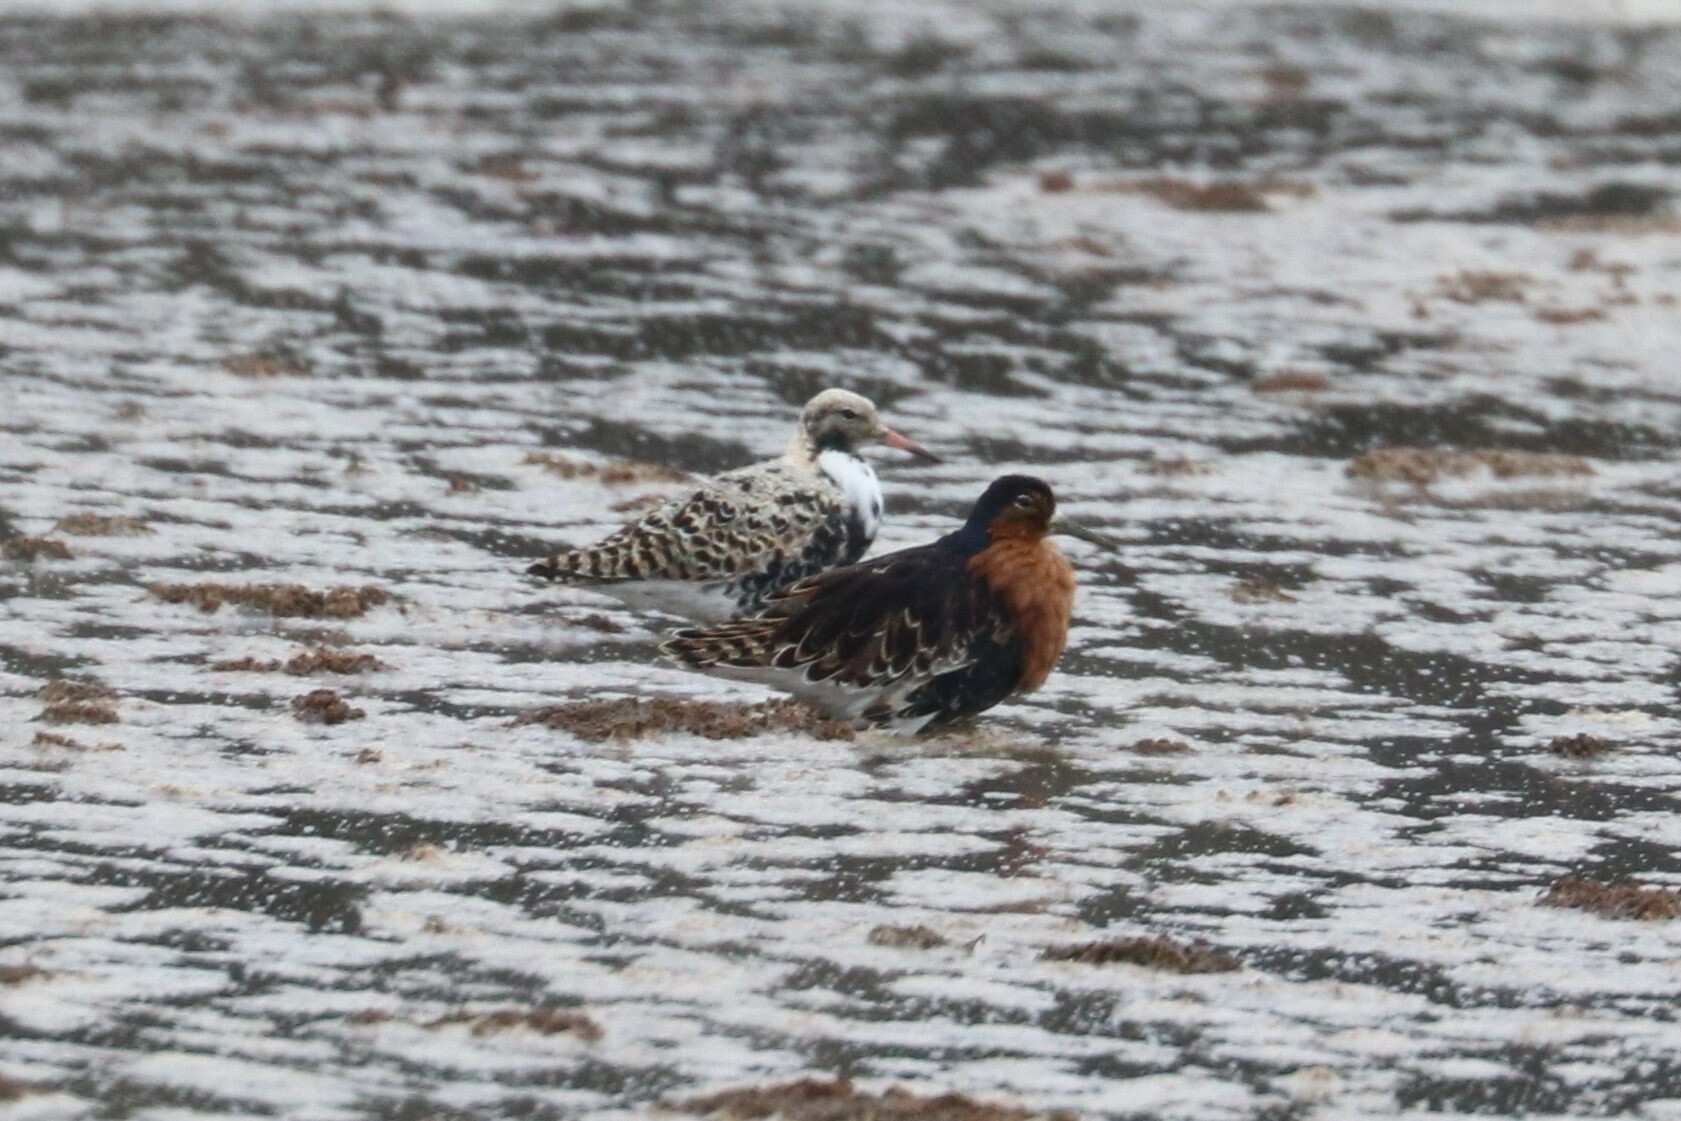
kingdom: Animalia
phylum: Chordata
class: Aves
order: Charadriiformes
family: Scolopacidae
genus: Calidris
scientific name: Calidris pugnax
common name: Ruff
